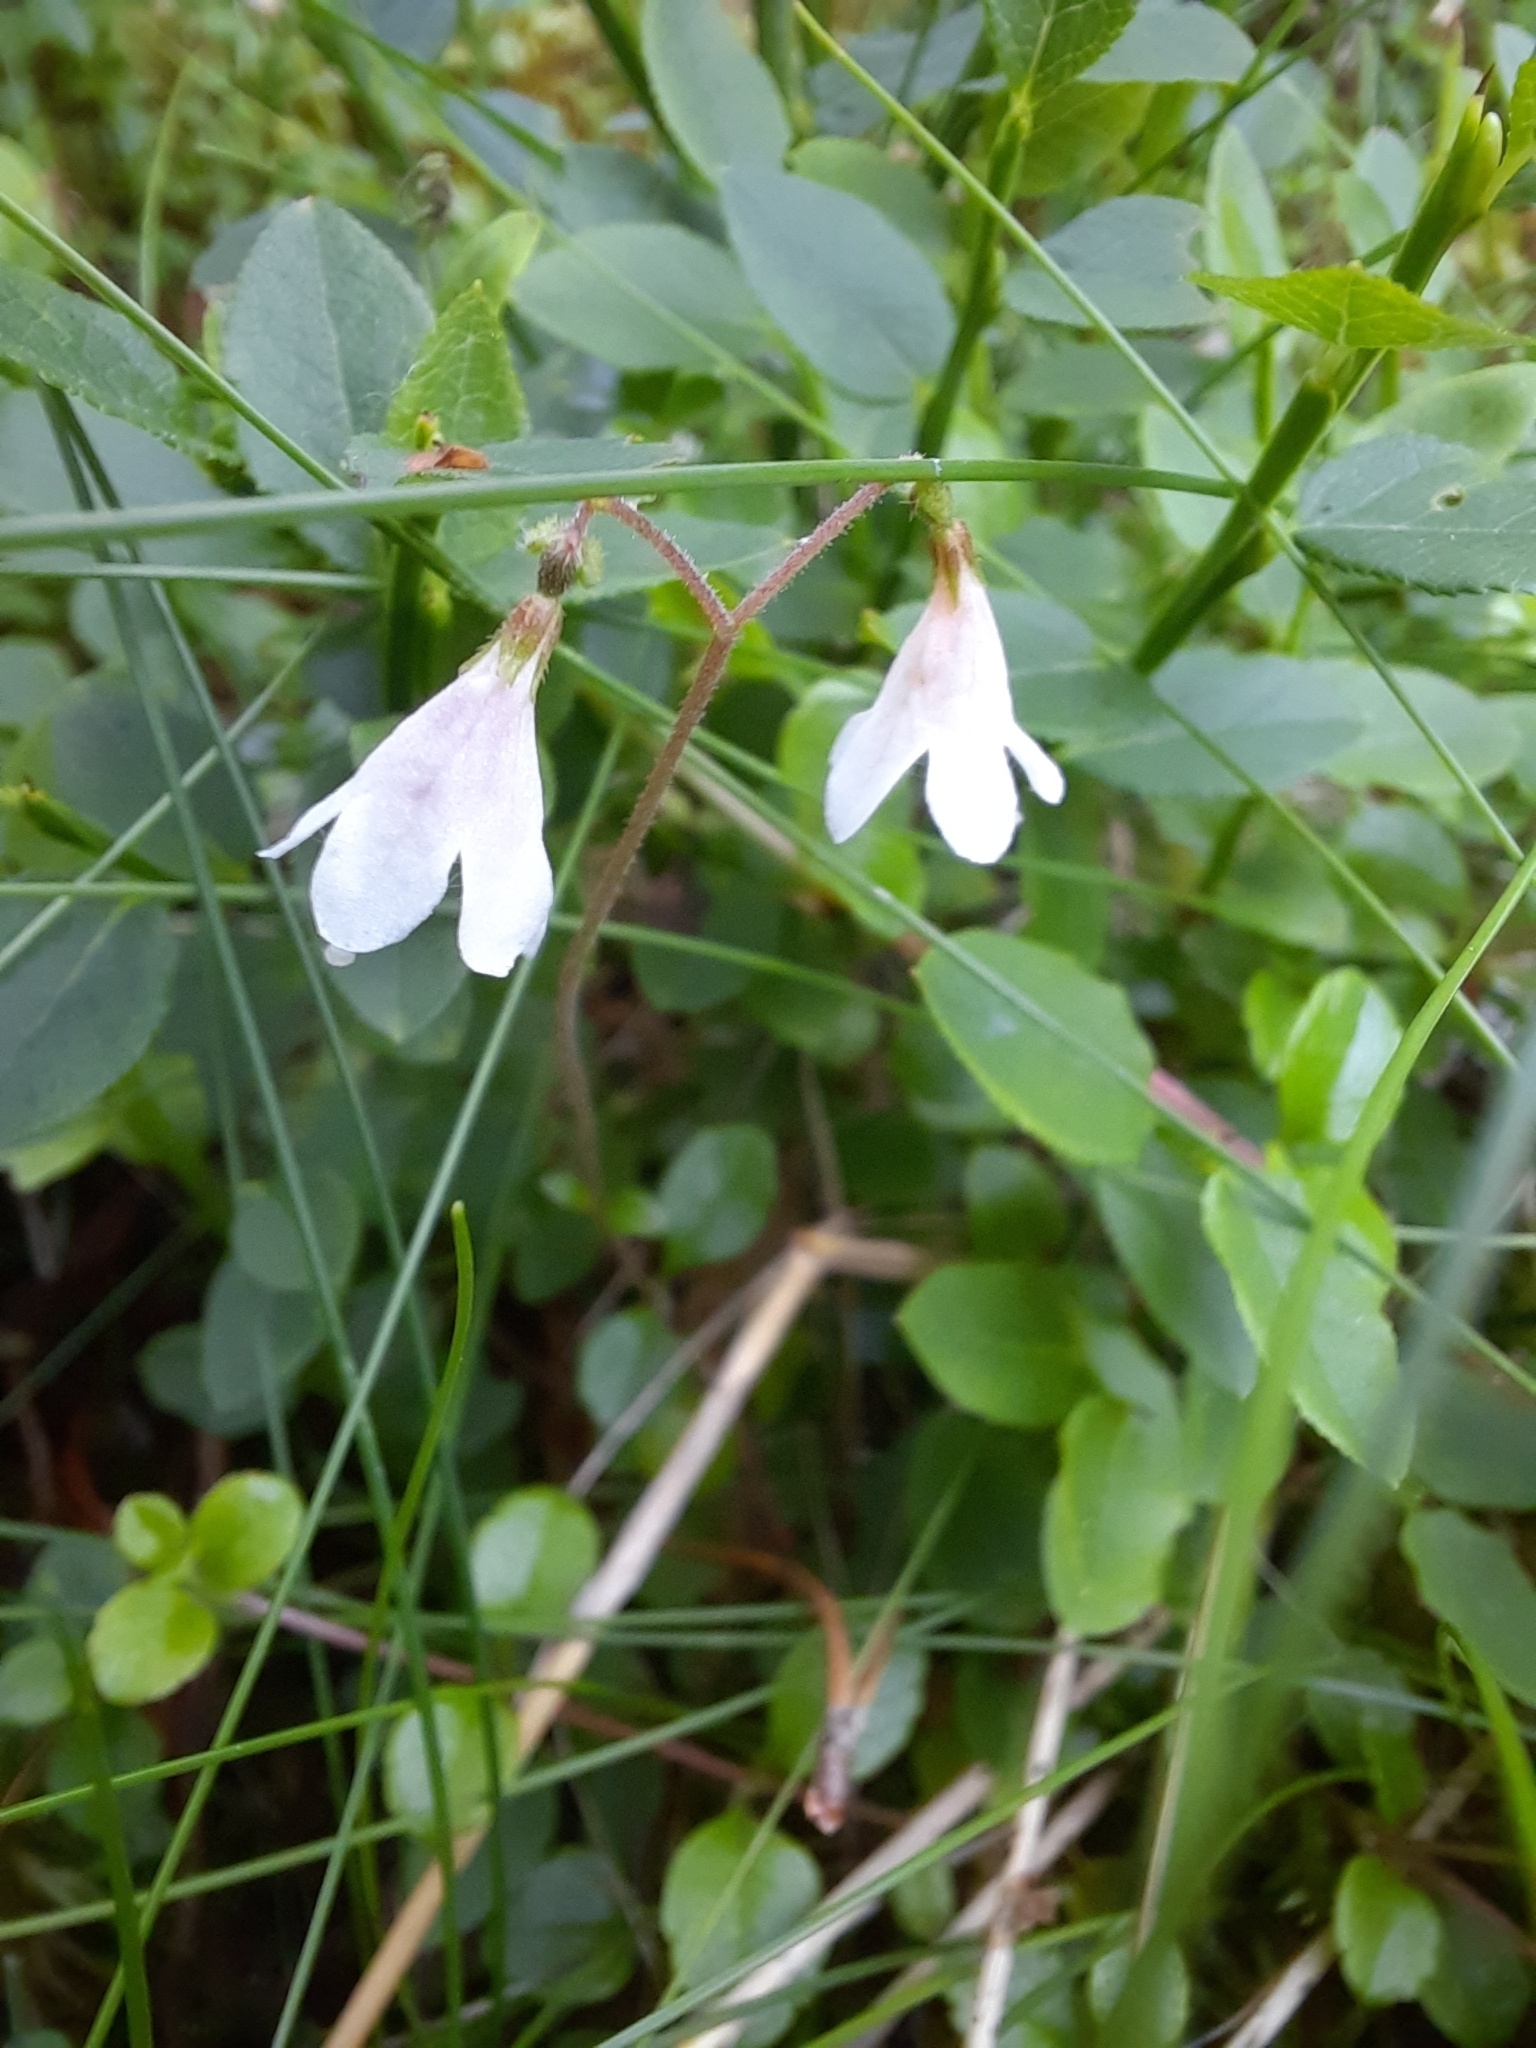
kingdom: Plantae
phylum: Tracheophyta
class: Magnoliopsida
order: Dipsacales
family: Caprifoliaceae
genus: Linnaea
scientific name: Linnaea borealis
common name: Twinflower
